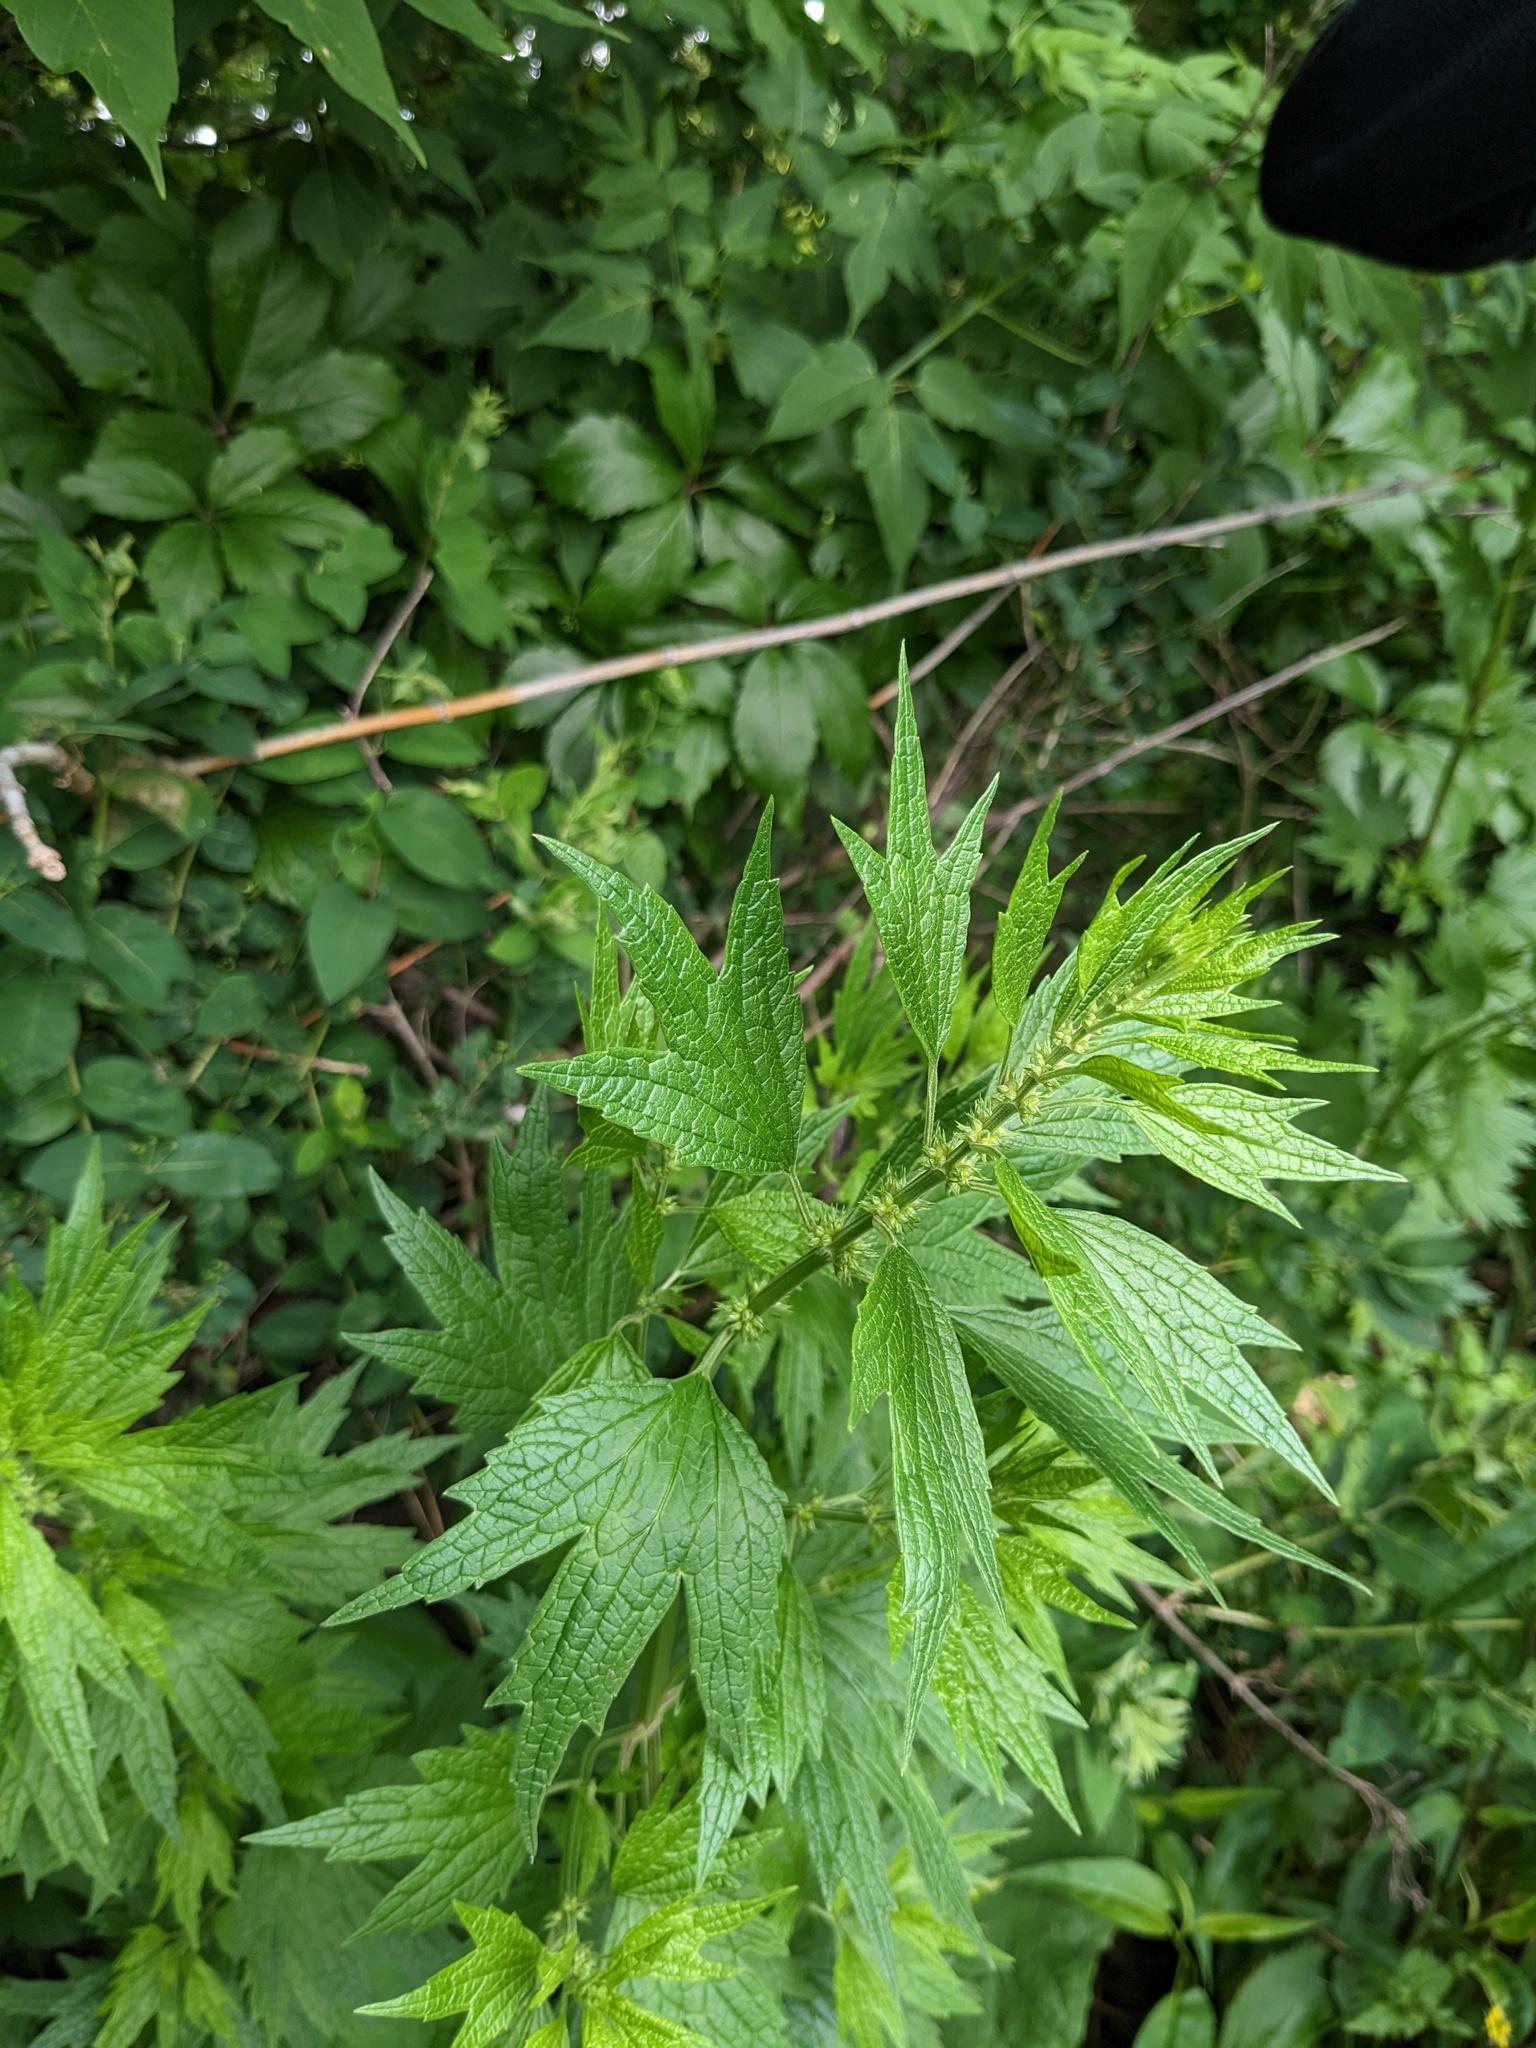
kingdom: Plantae
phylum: Tracheophyta
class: Magnoliopsida
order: Lamiales
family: Lamiaceae
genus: Leonurus
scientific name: Leonurus cardiaca
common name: Motherwort
